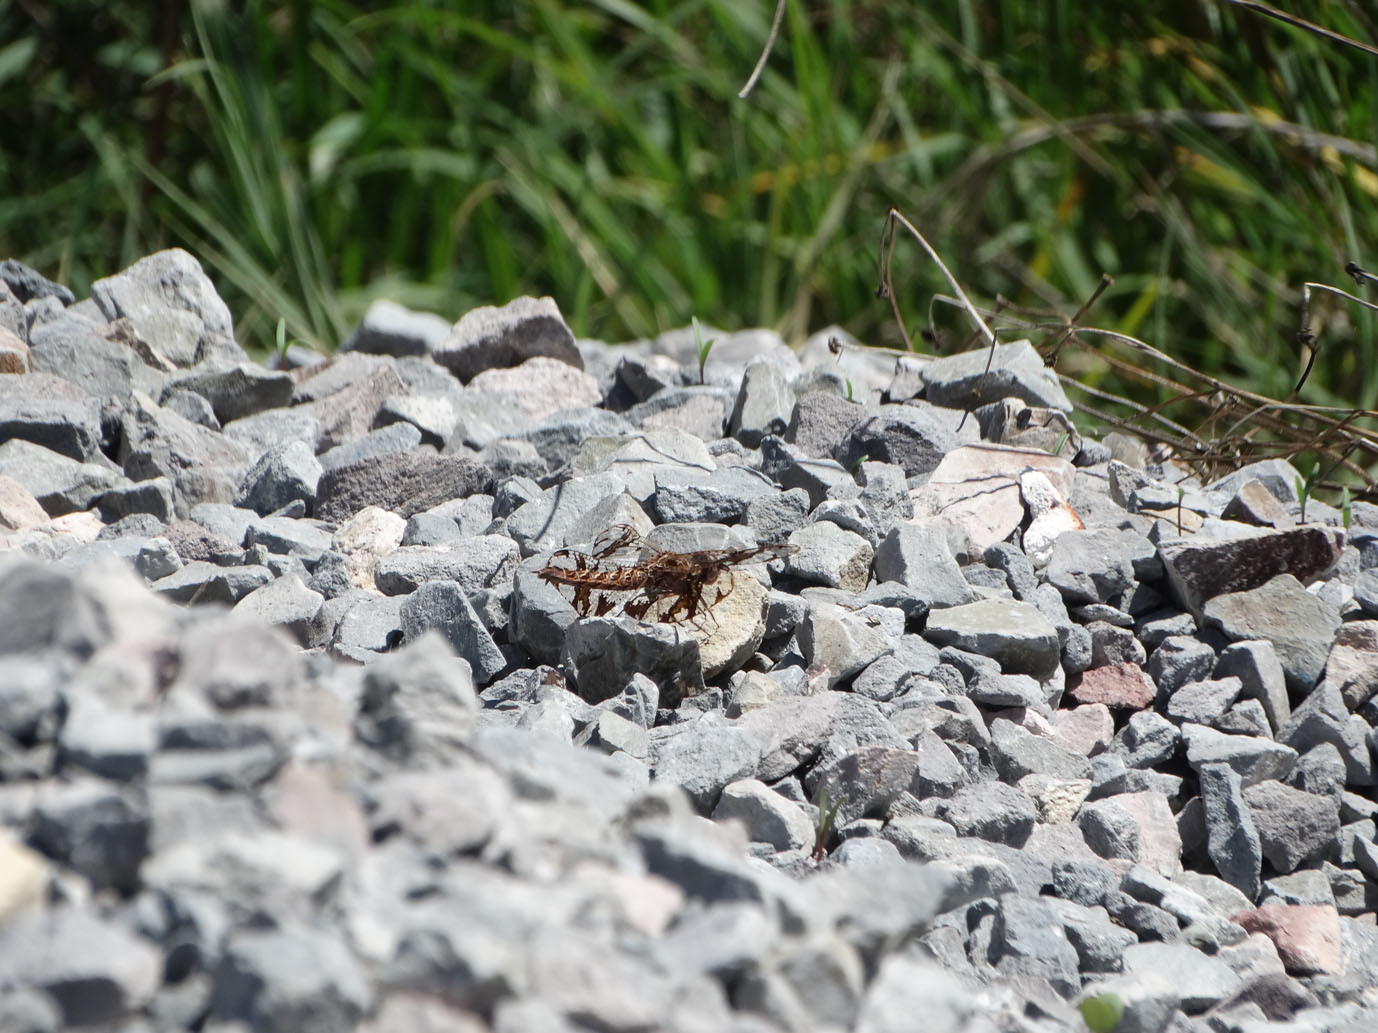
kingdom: Animalia
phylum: Arthropoda
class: Insecta
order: Odonata
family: Libellulidae
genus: Pseudoleon
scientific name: Pseudoleon superbus
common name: Filigree skimmer
